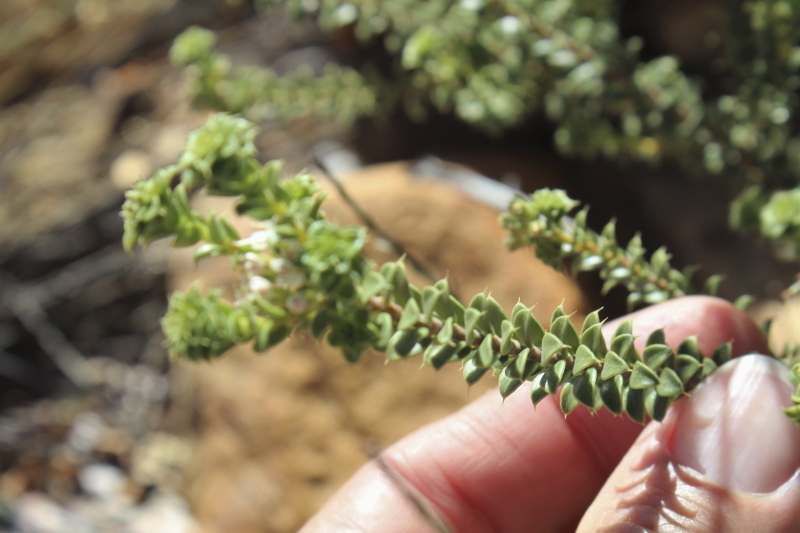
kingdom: Plantae
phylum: Tracheophyta
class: Magnoliopsida
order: Sapindales
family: Rutaceae
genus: Agathosma
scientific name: Agathosma recurvifolia
